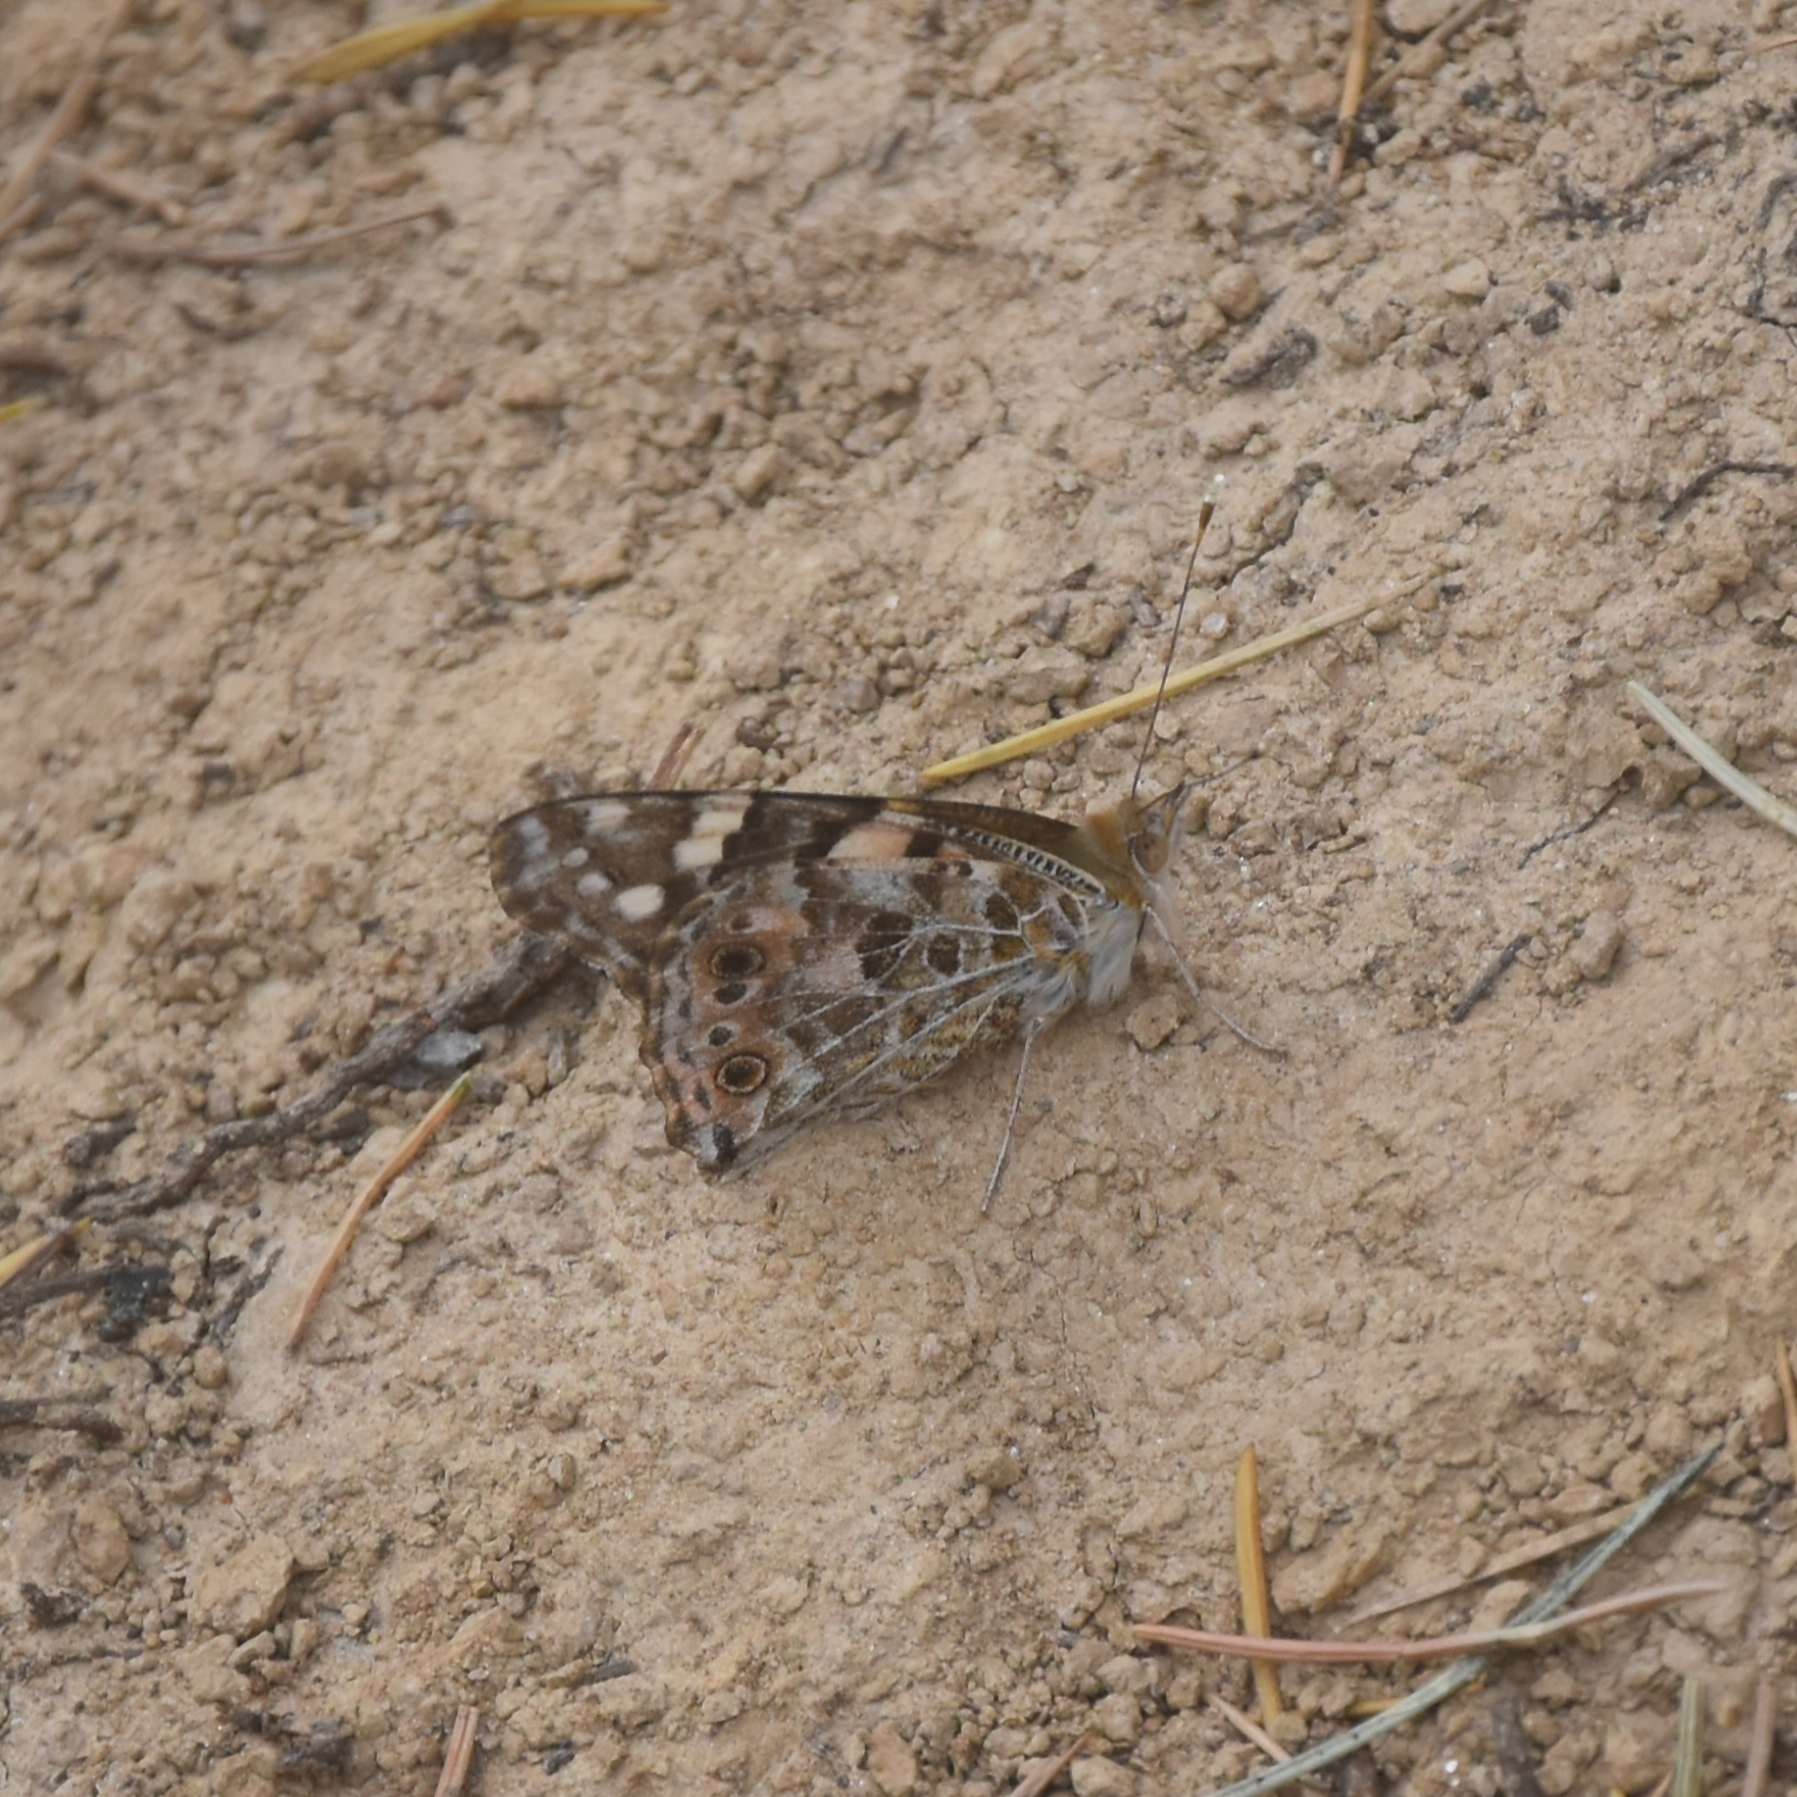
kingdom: Animalia
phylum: Arthropoda
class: Insecta
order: Lepidoptera
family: Nymphalidae
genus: Vanessa
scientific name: Vanessa cardui
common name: Painted lady
